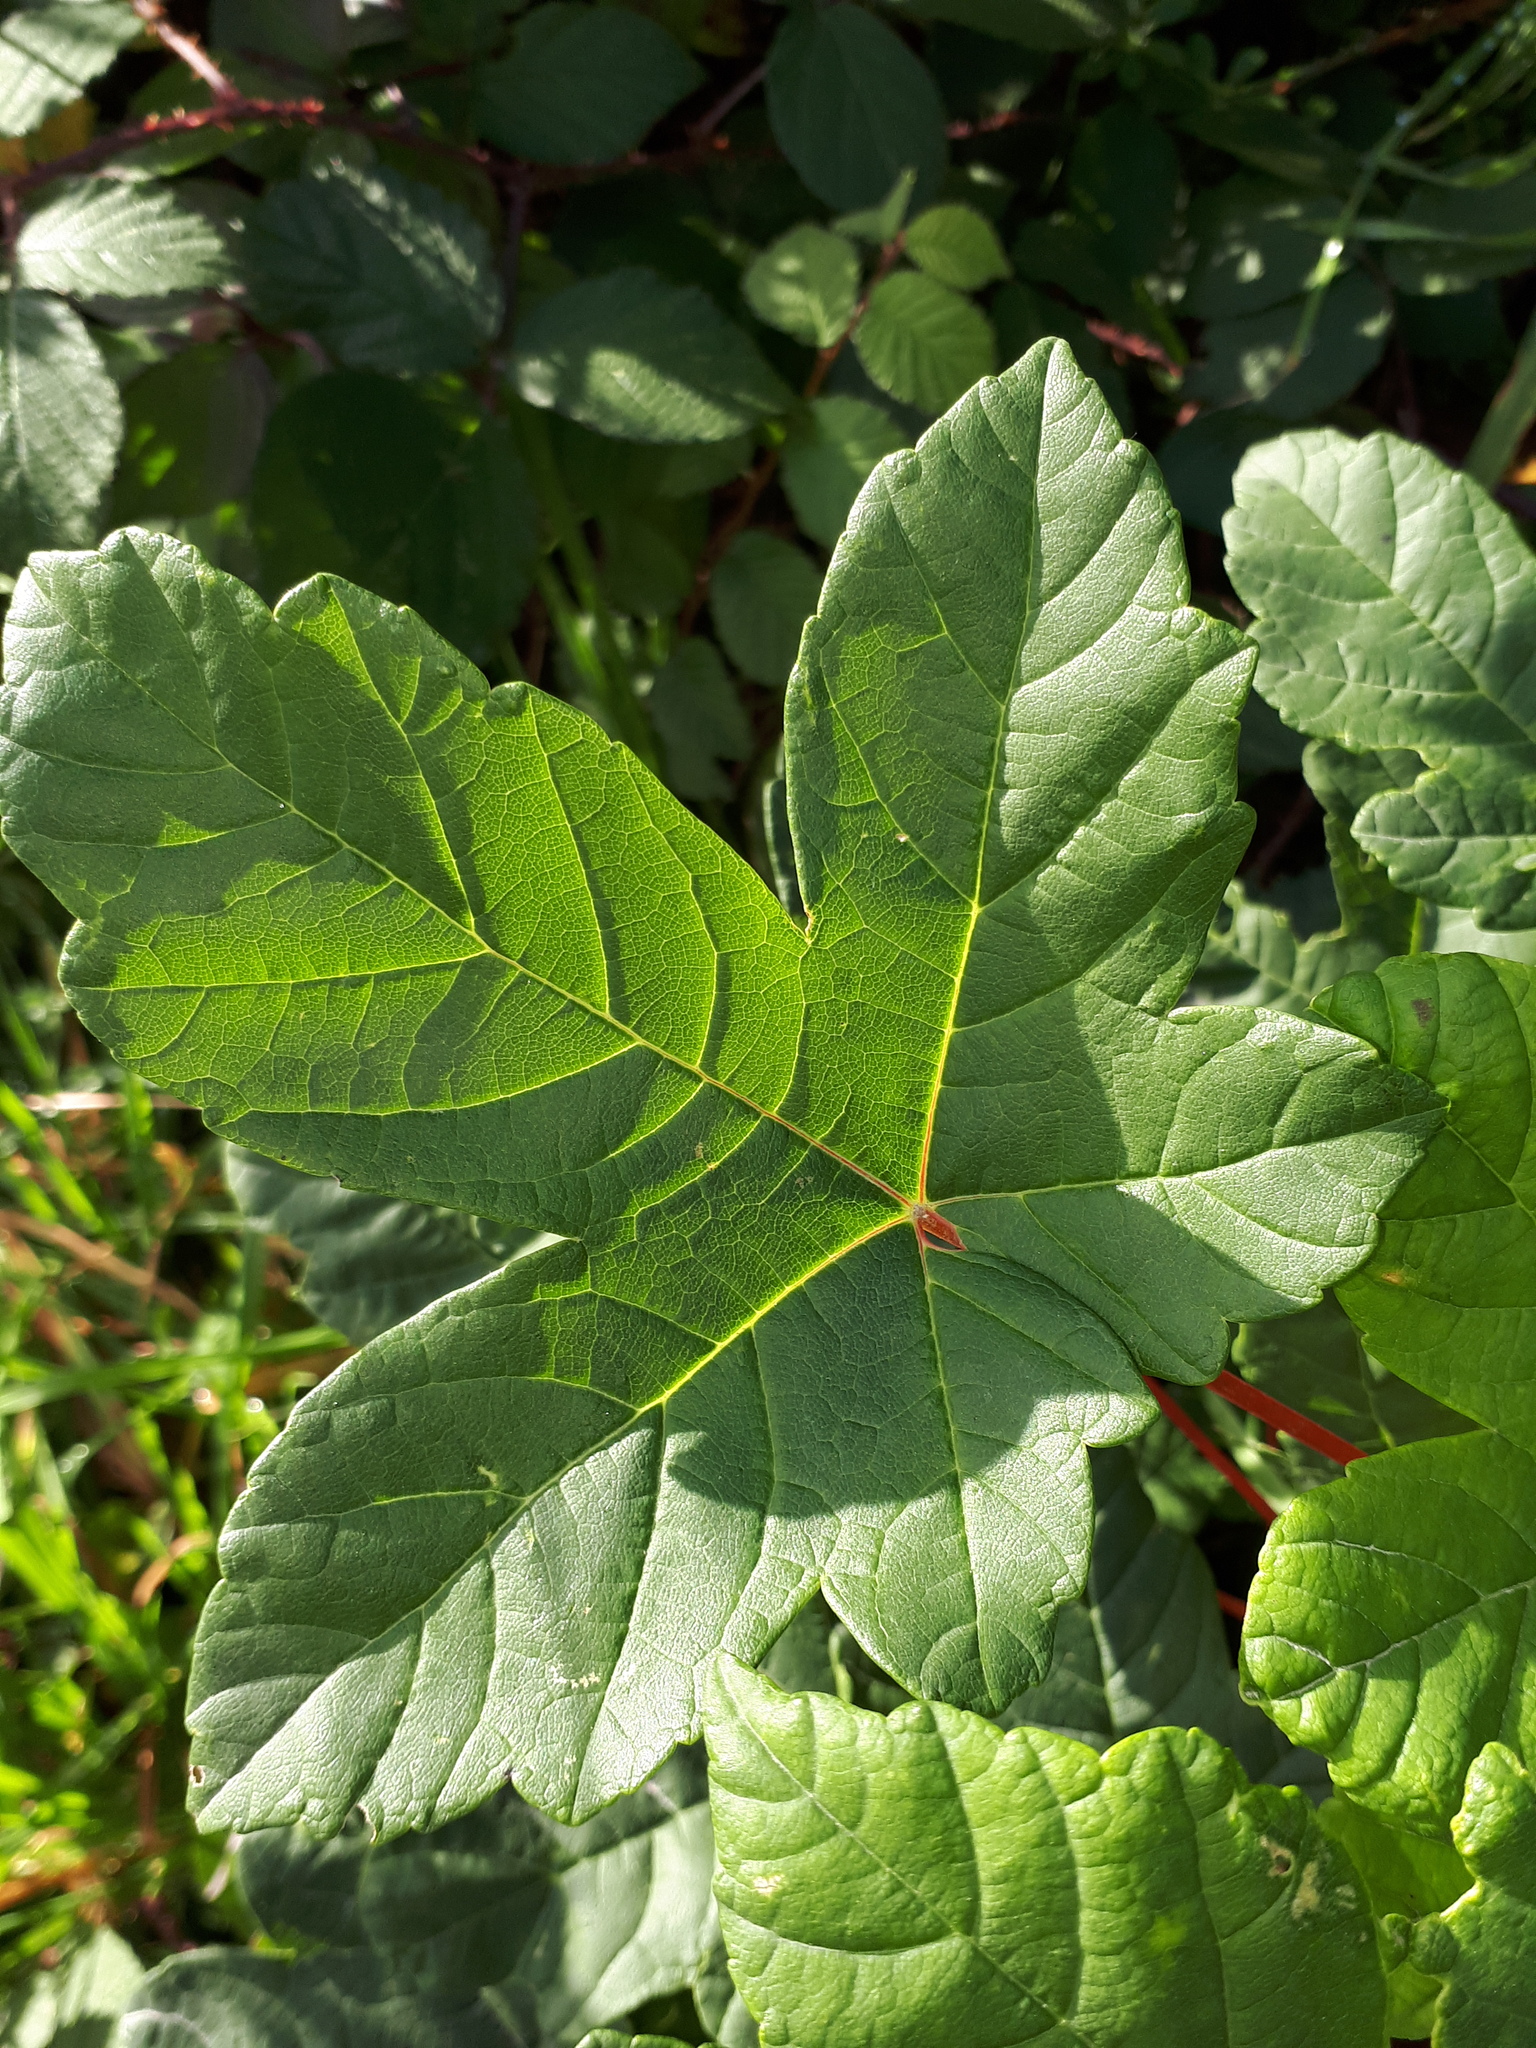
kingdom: Plantae
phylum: Tracheophyta
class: Magnoliopsida
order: Sapindales
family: Sapindaceae
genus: Acer
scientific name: Acer pseudoplatanus
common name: Sycamore
